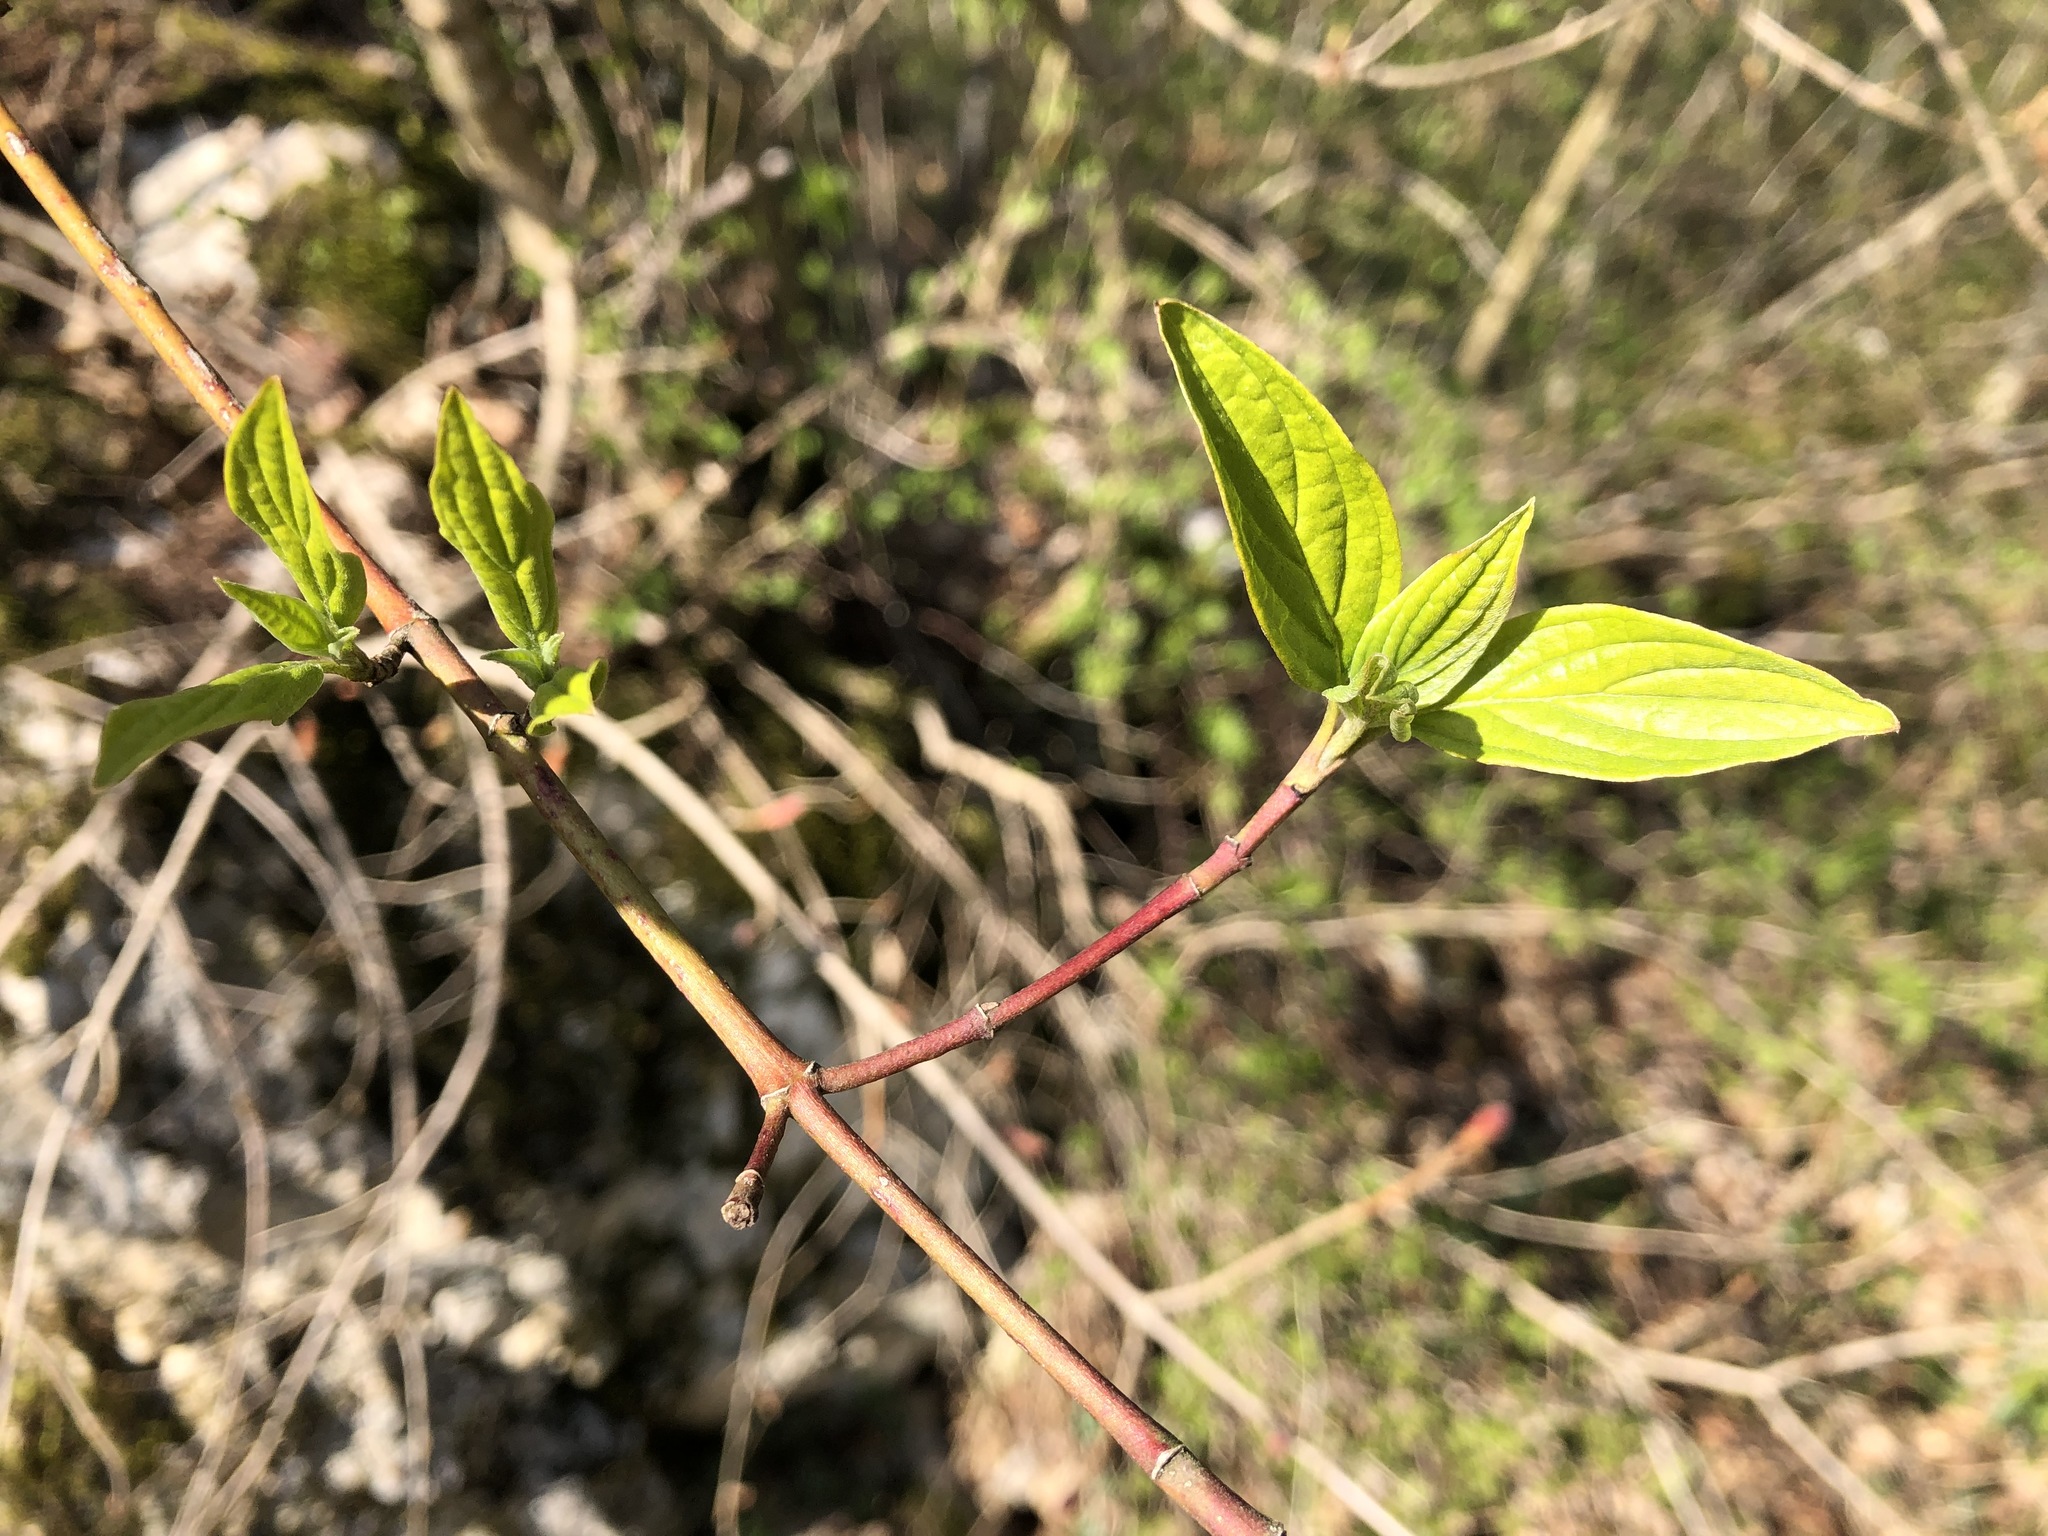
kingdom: Plantae
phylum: Tracheophyta
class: Magnoliopsida
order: Cornales
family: Cornaceae
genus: Cornus
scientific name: Cornus sanguinea
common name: Dogwood
